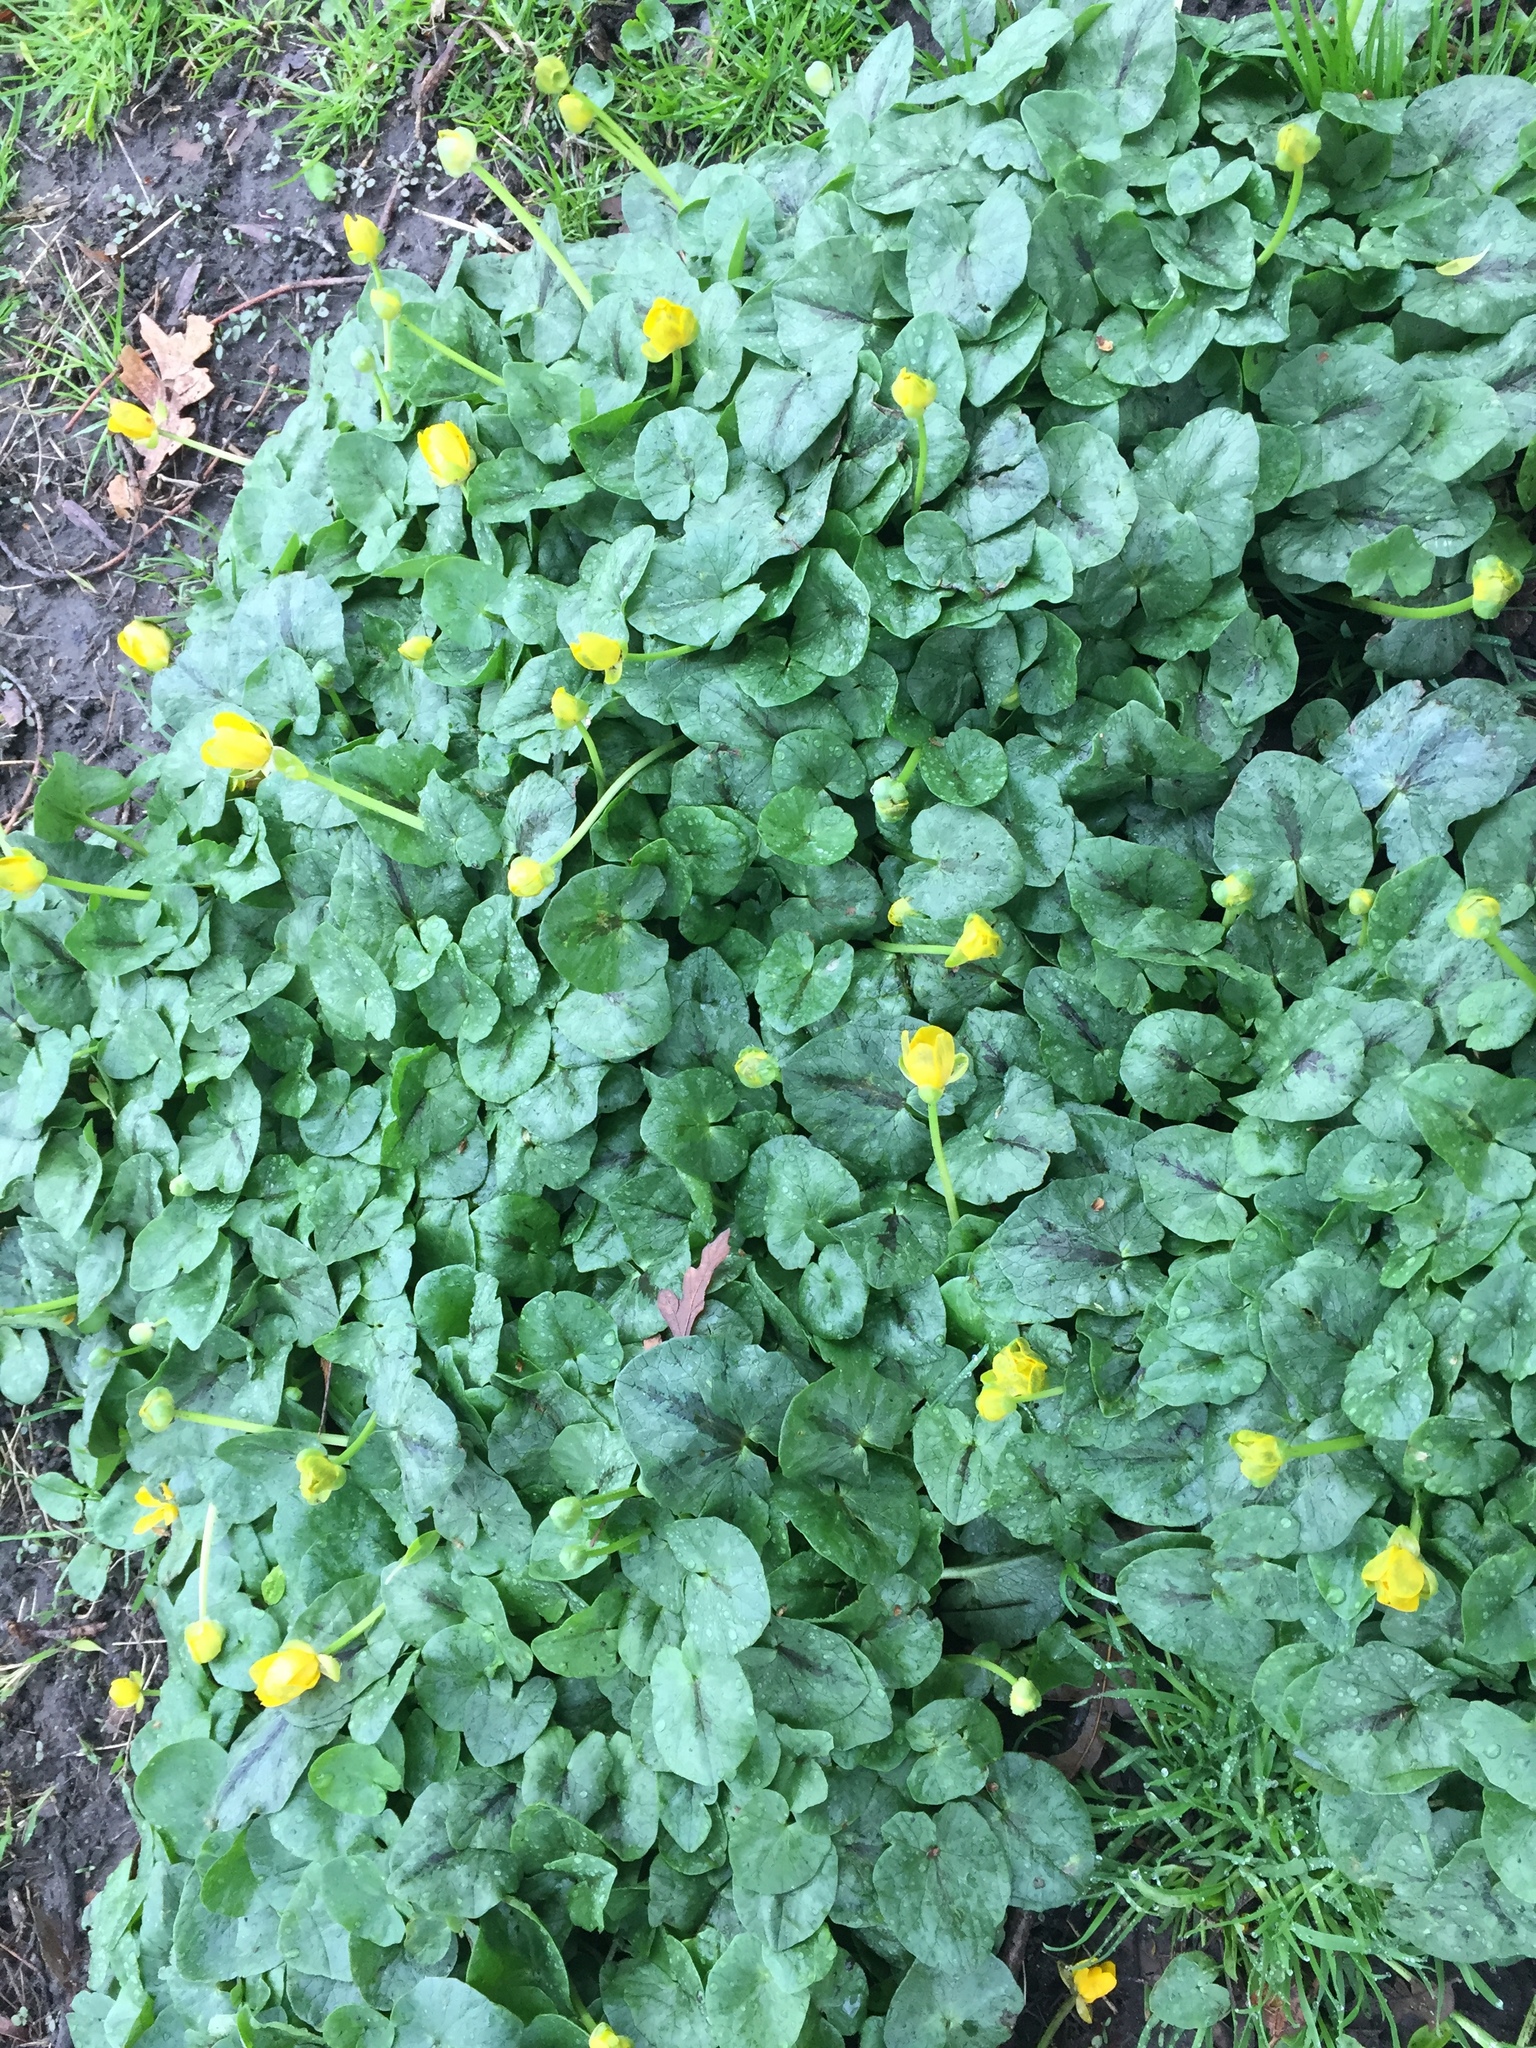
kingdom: Plantae
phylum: Tracheophyta
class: Magnoliopsida
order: Ranunculales
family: Ranunculaceae
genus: Ficaria
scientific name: Ficaria verna
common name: Lesser celandine
